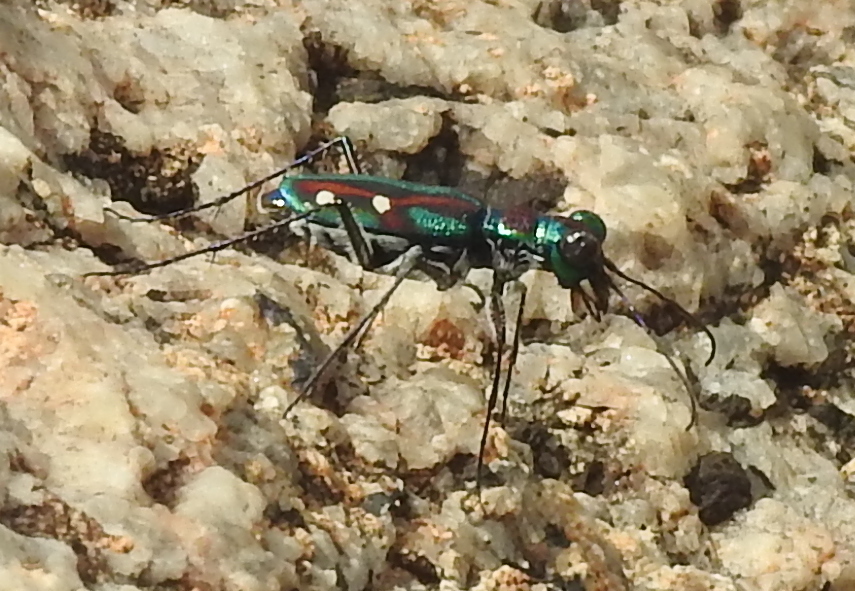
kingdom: Animalia
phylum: Arthropoda
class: Insecta
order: Coleoptera
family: Carabidae
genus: Jansenia
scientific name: Jansenia rugosiceps
